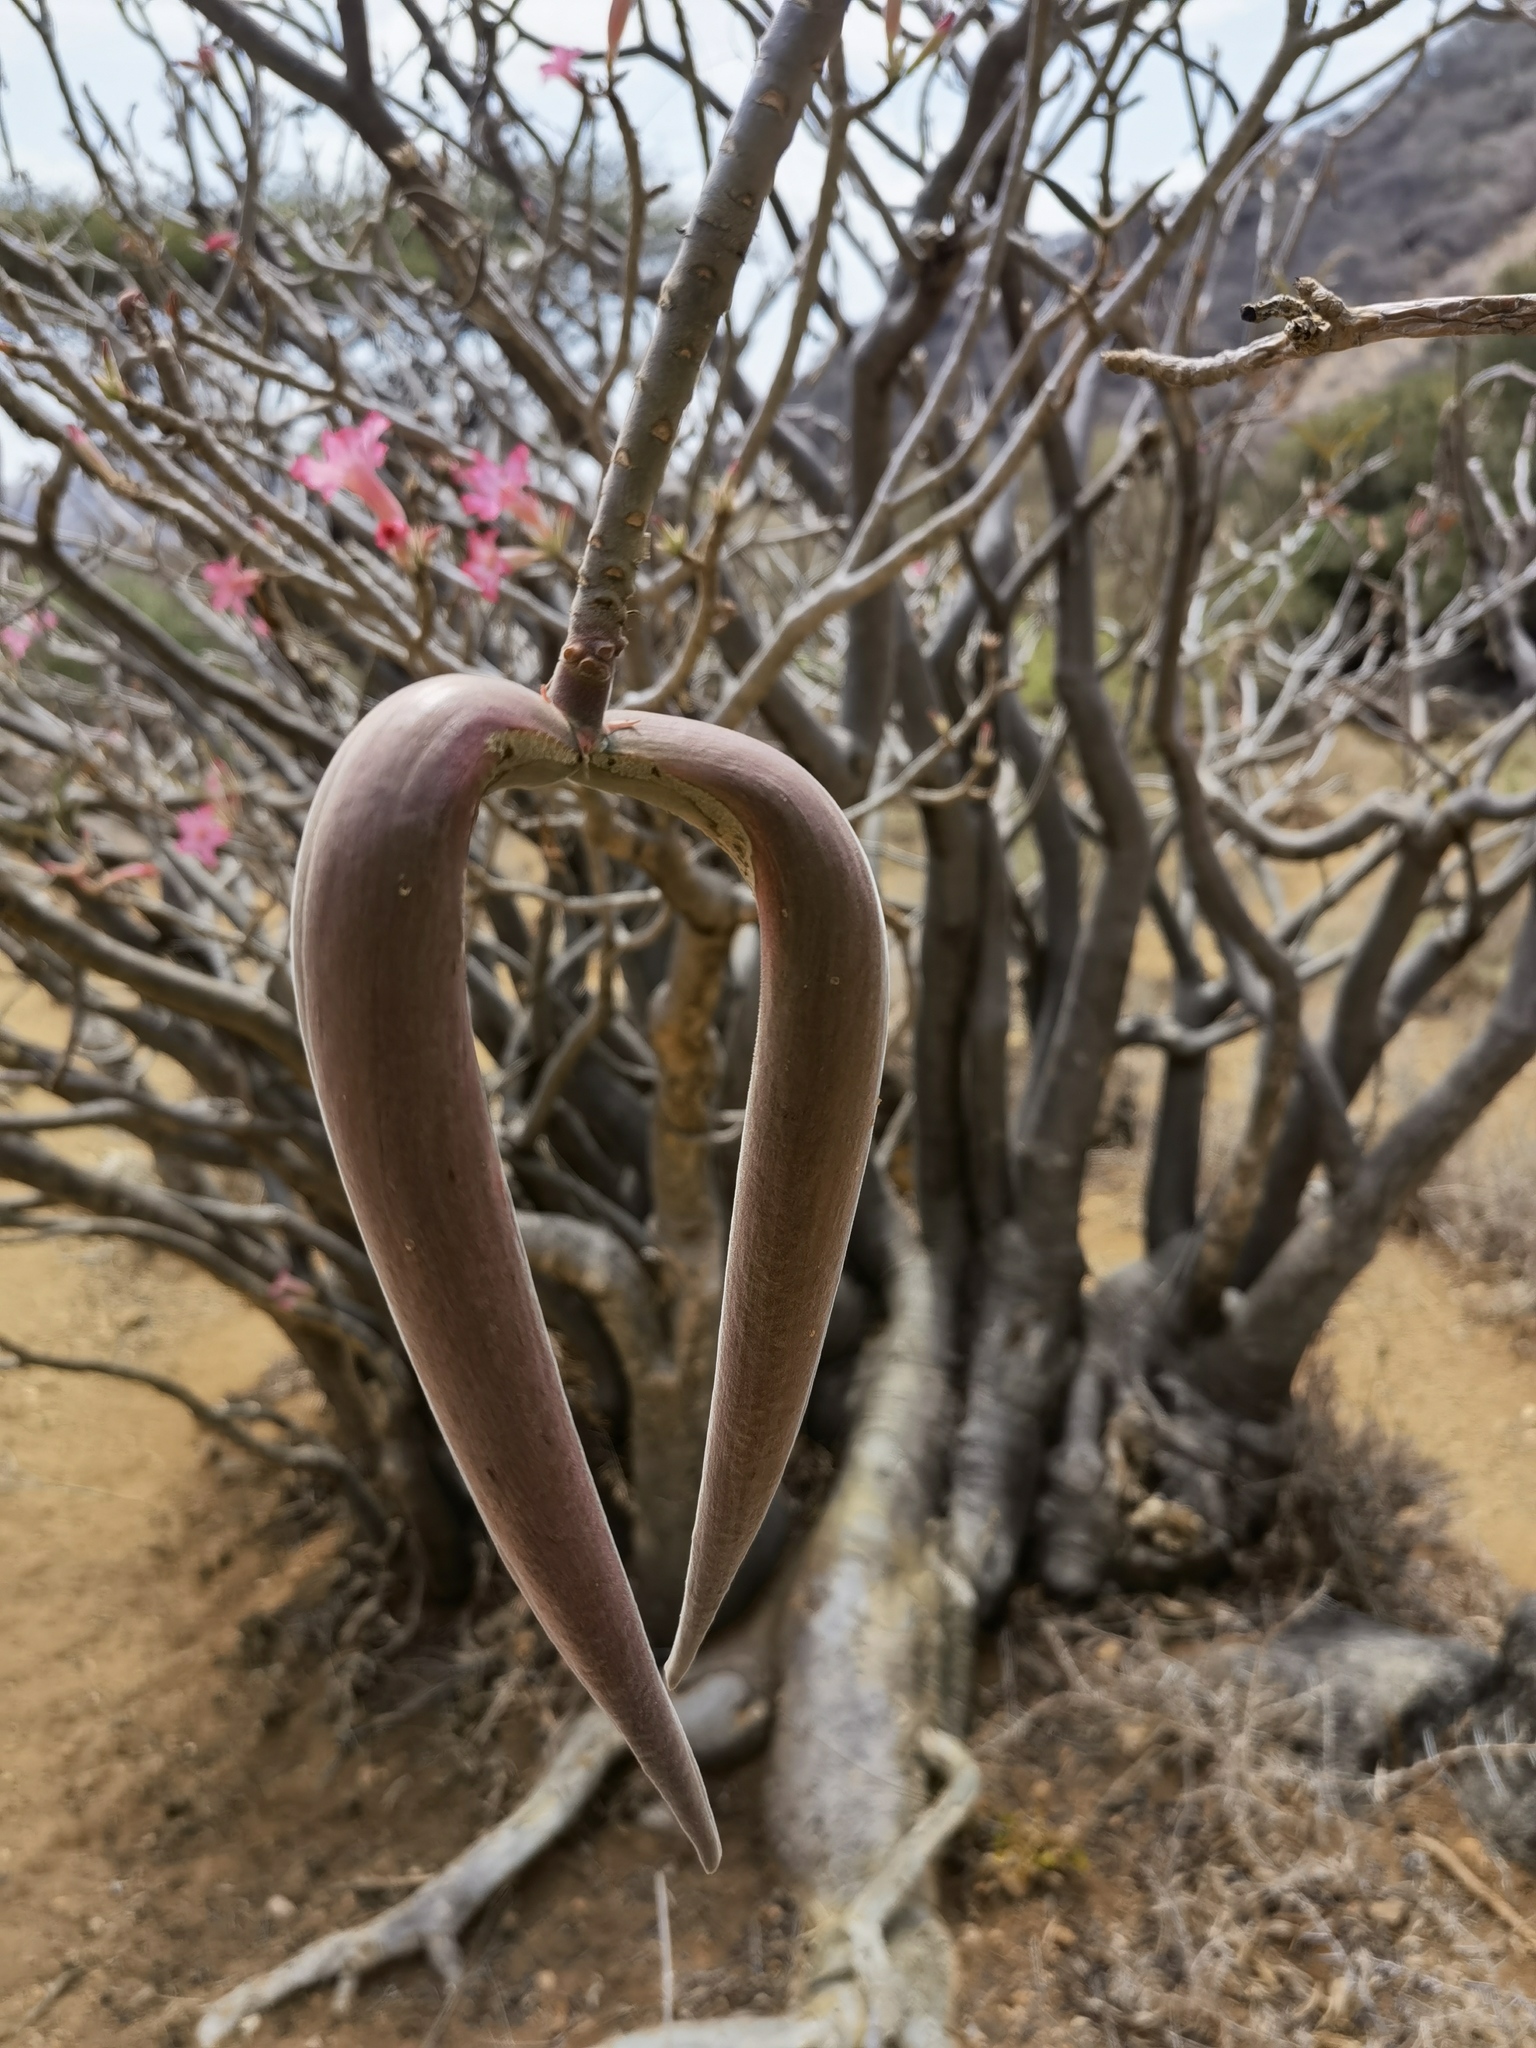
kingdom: Plantae
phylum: Tracheophyta
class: Magnoliopsida
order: Gentianales
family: Apocynaceae
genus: Adenium
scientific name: Adenium obesum
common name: Desert-rose
